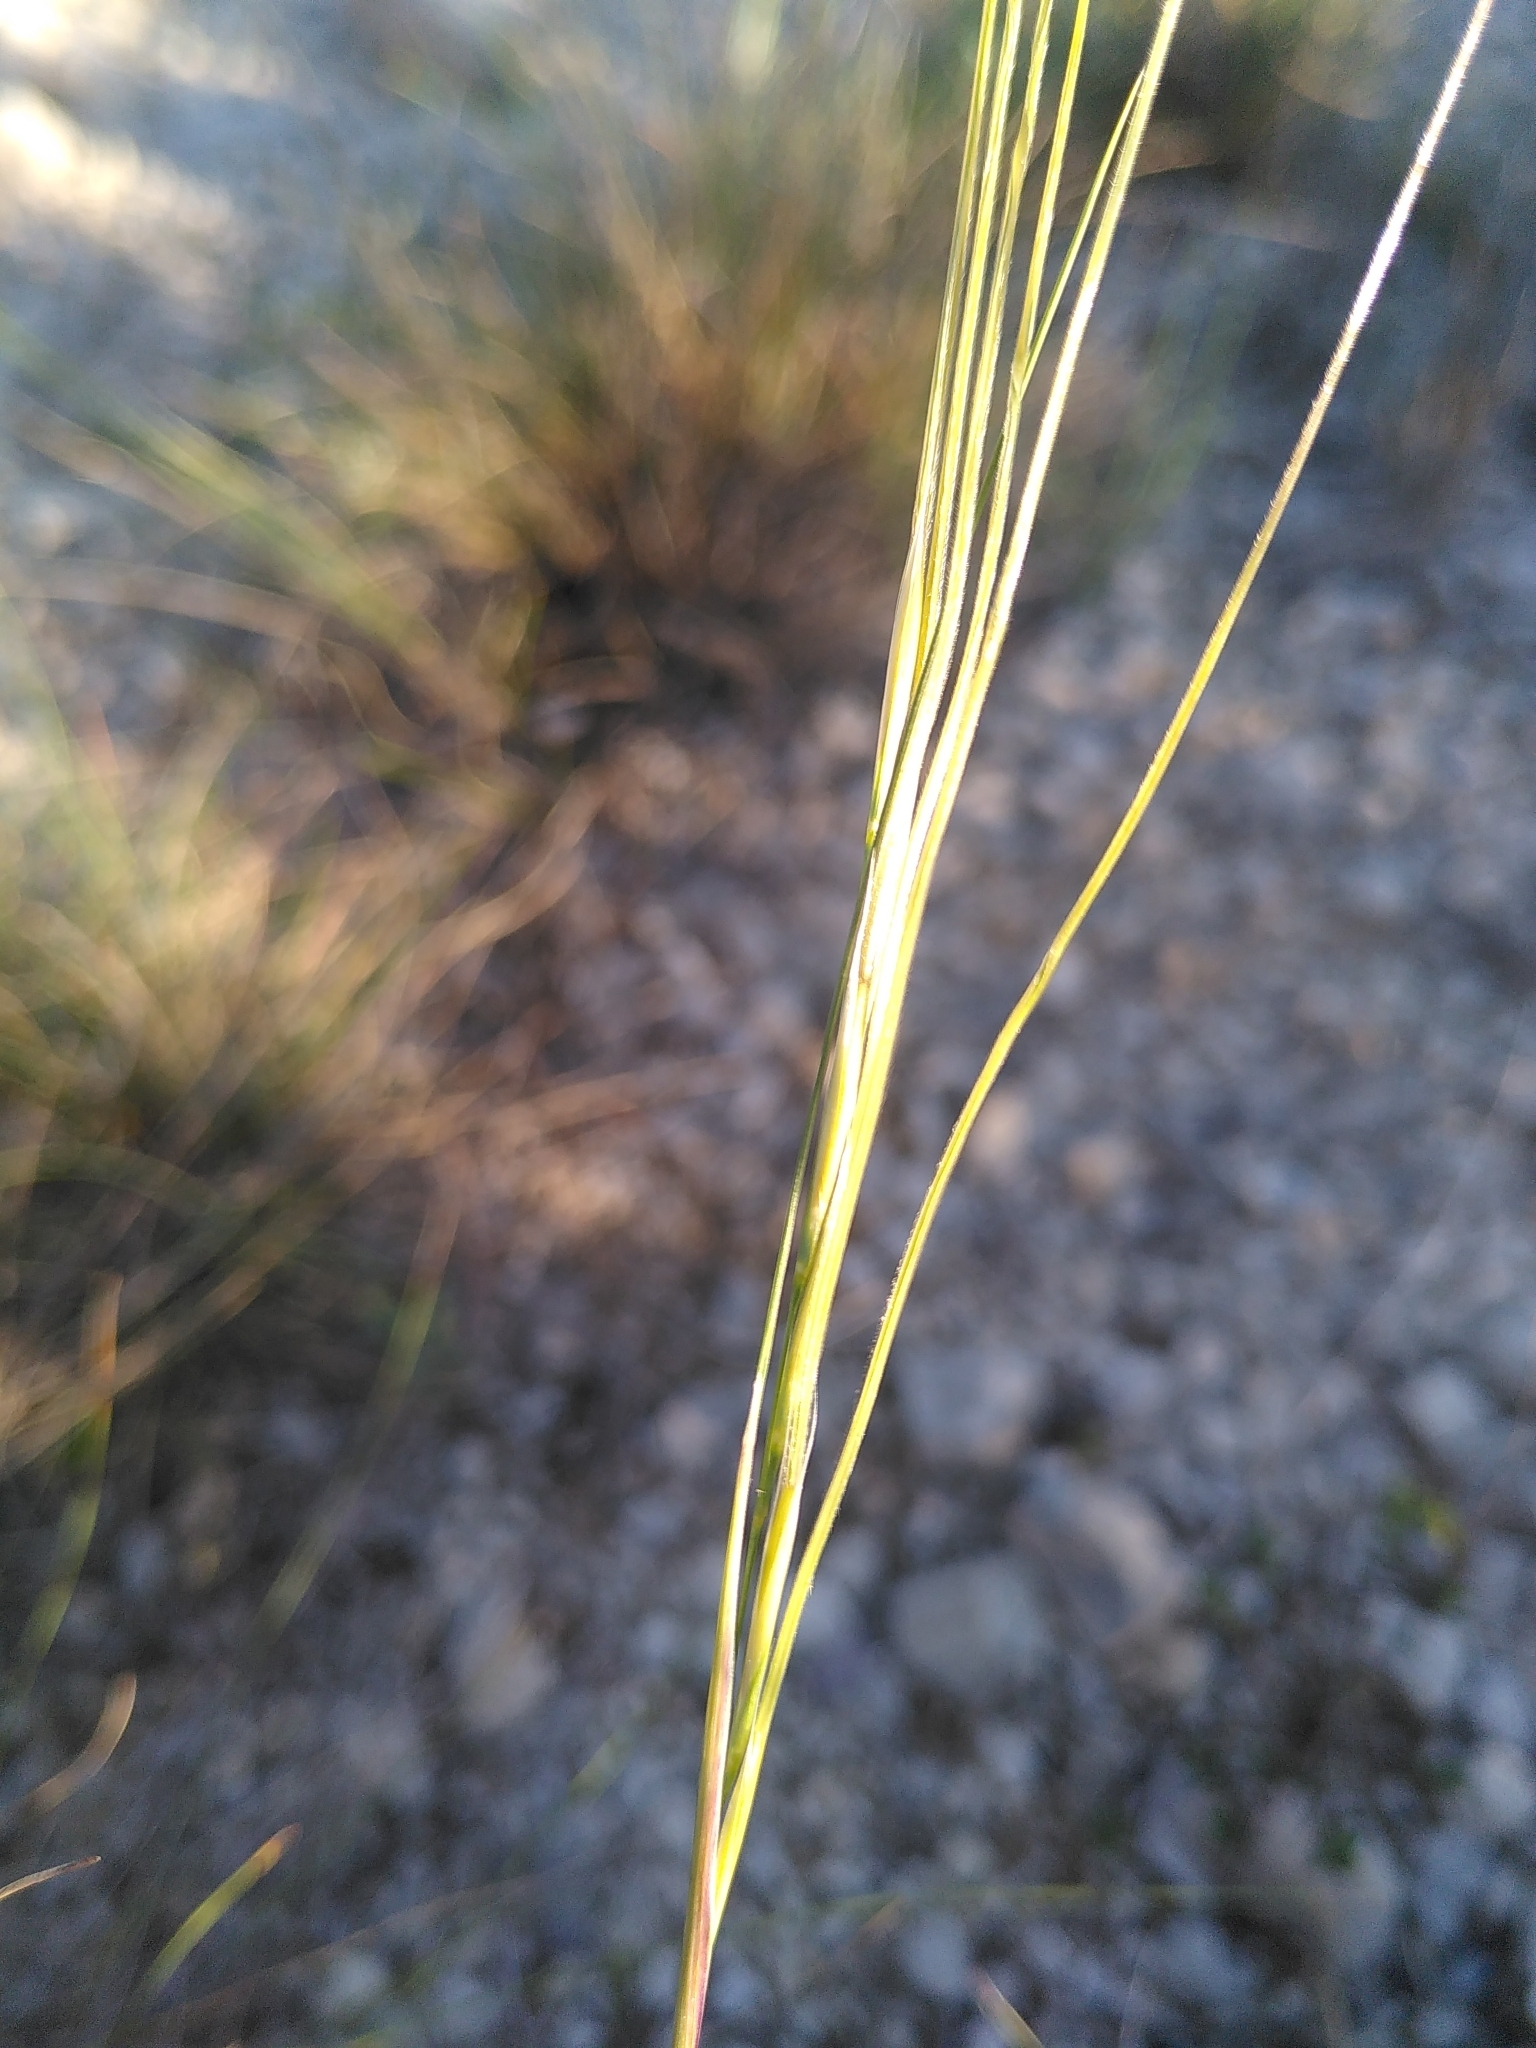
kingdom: Plantae
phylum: Tracheophyta
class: Liliopsida
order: Poales
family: Poaceae
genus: Stipa
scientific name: Stipa juncea
